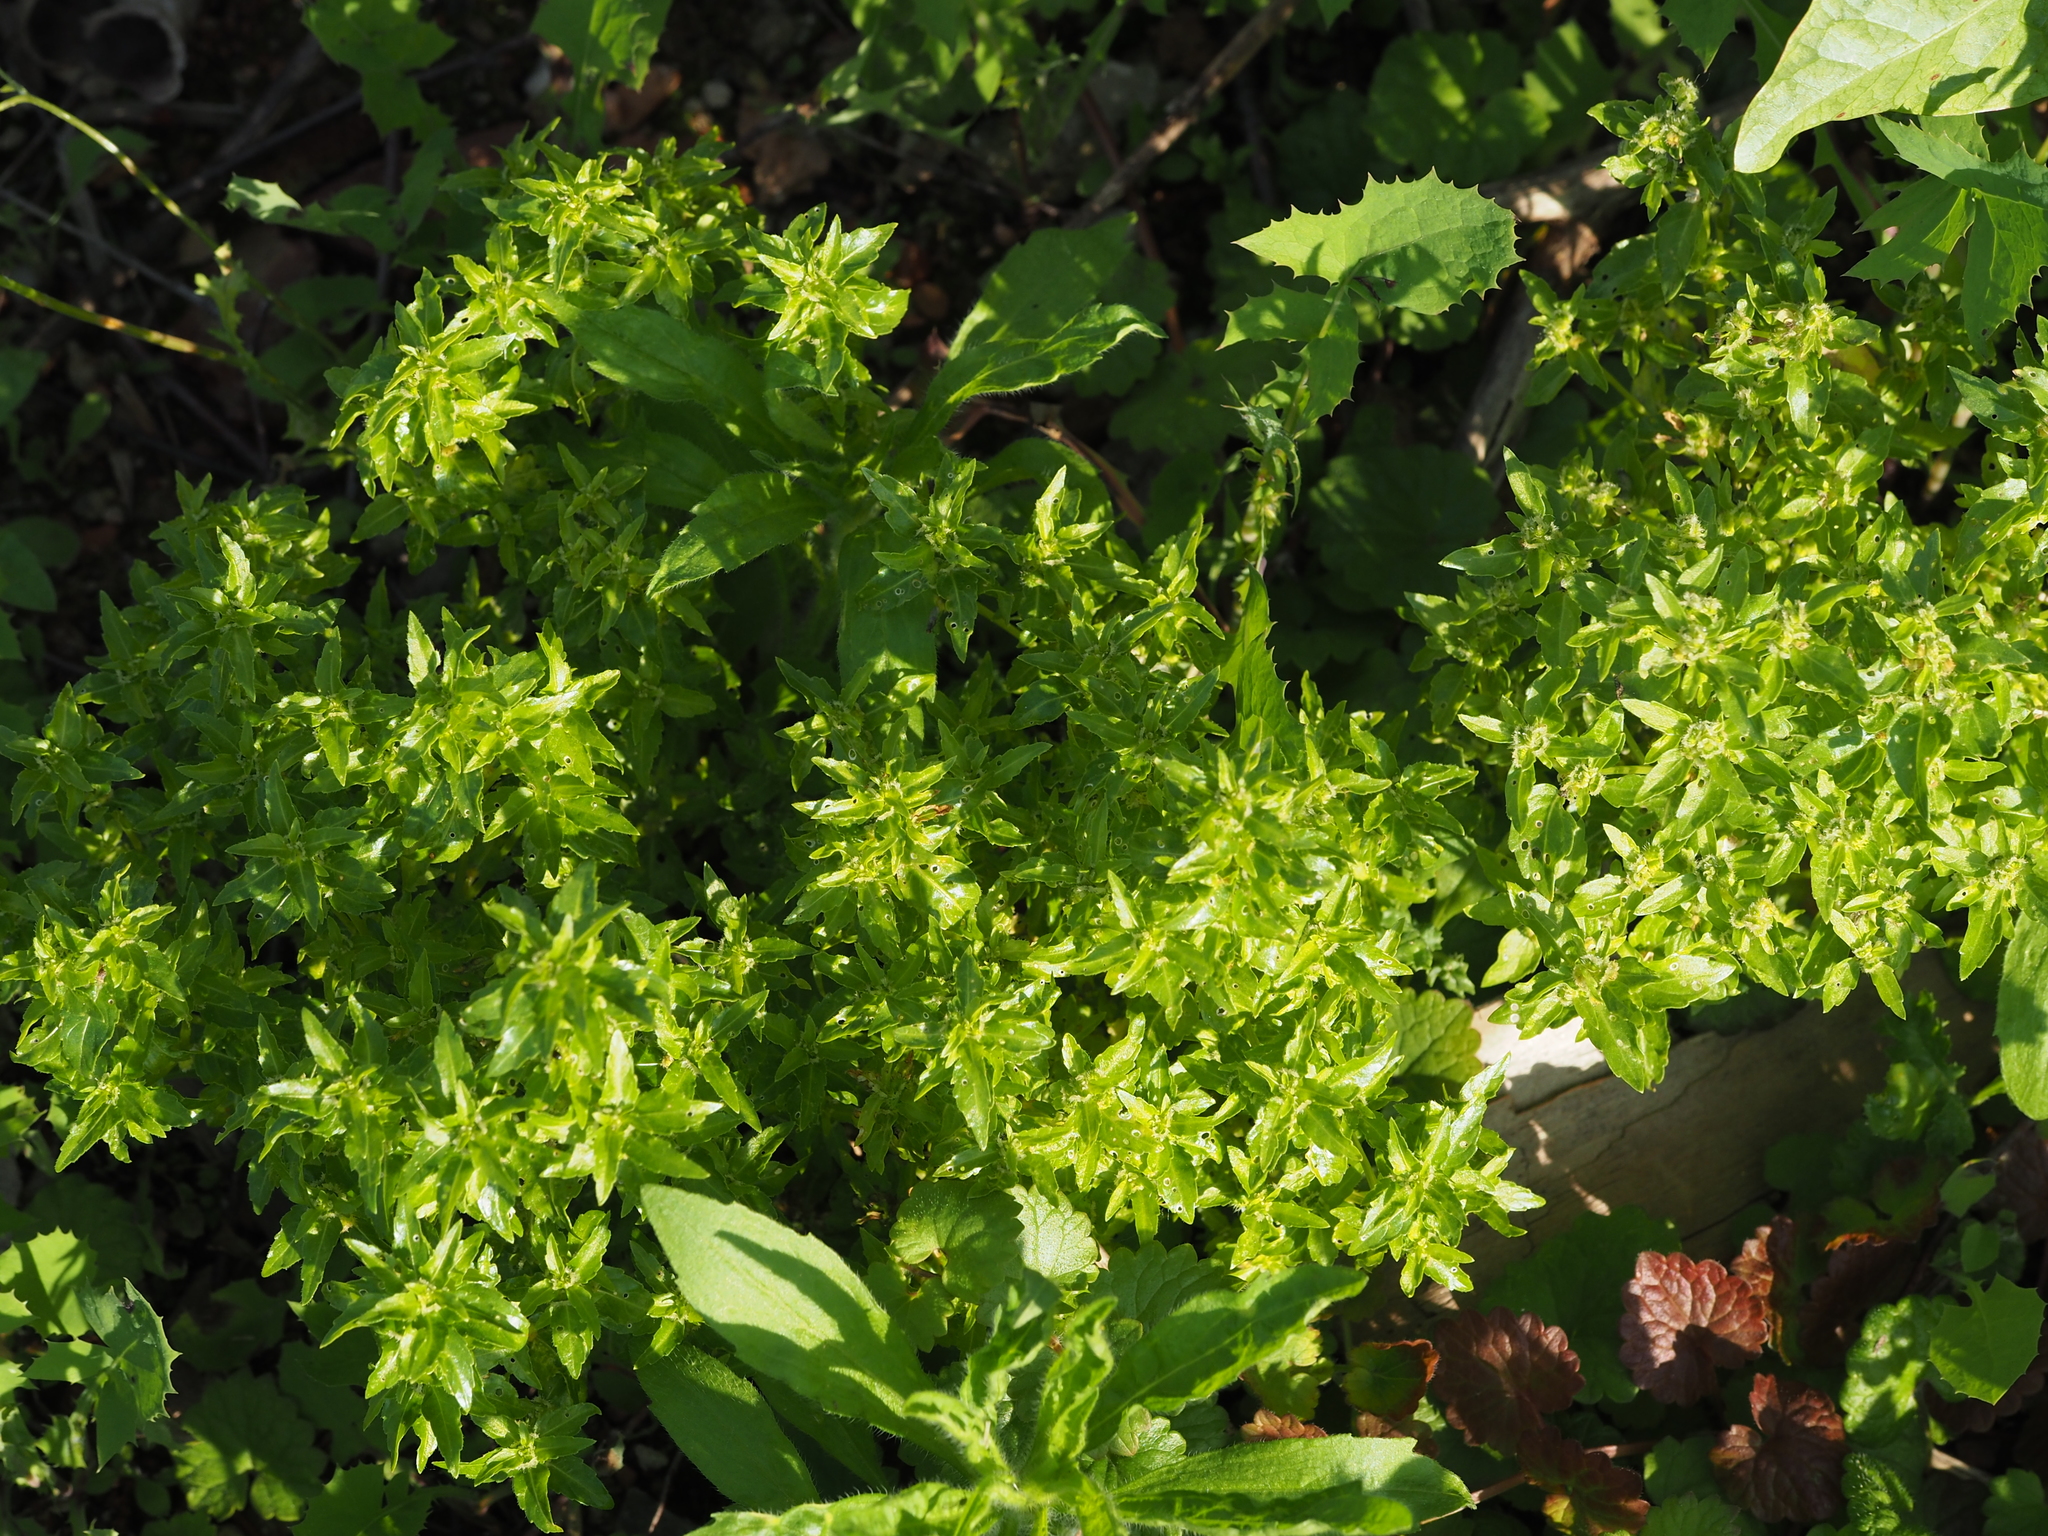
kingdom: Plantae
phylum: Tracheophyta
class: Magnoliopsida
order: Malpighiales
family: Euphorbiaceae
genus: Mercurialis
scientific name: Mercurialis annua
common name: Annual mercury
